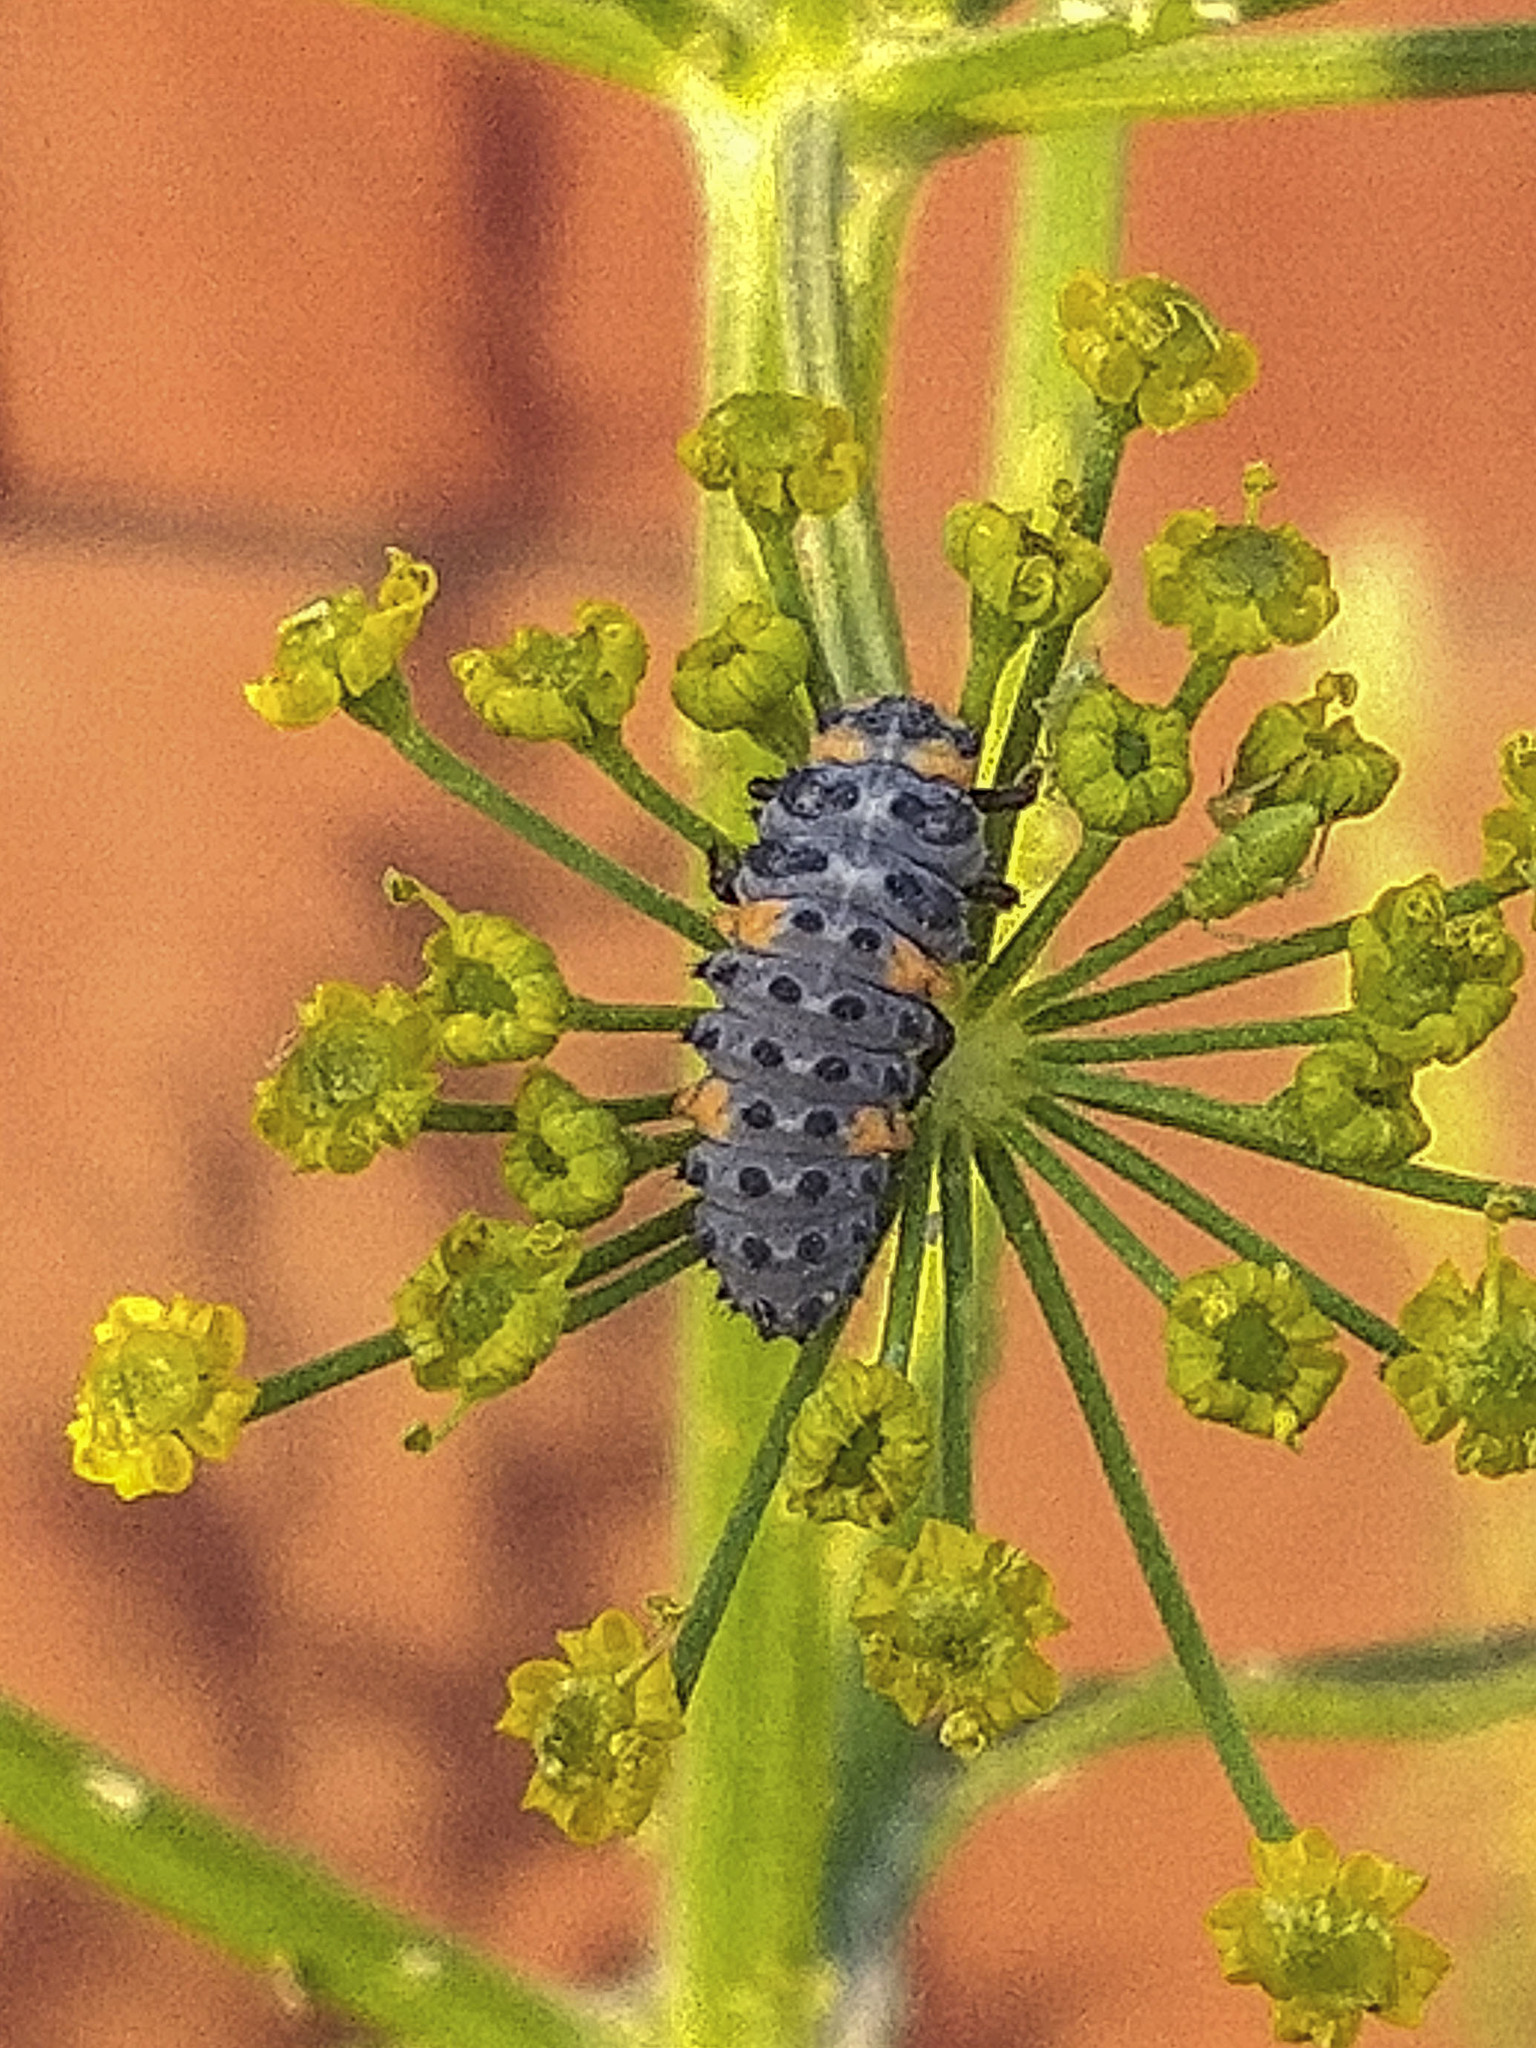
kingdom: Animalia
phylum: Arthropoda
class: Insecta
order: Coleoptera
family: Coccinellidae
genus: Coccinella
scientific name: Coccinella septempunctata
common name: Sevenspotted lady beetle
